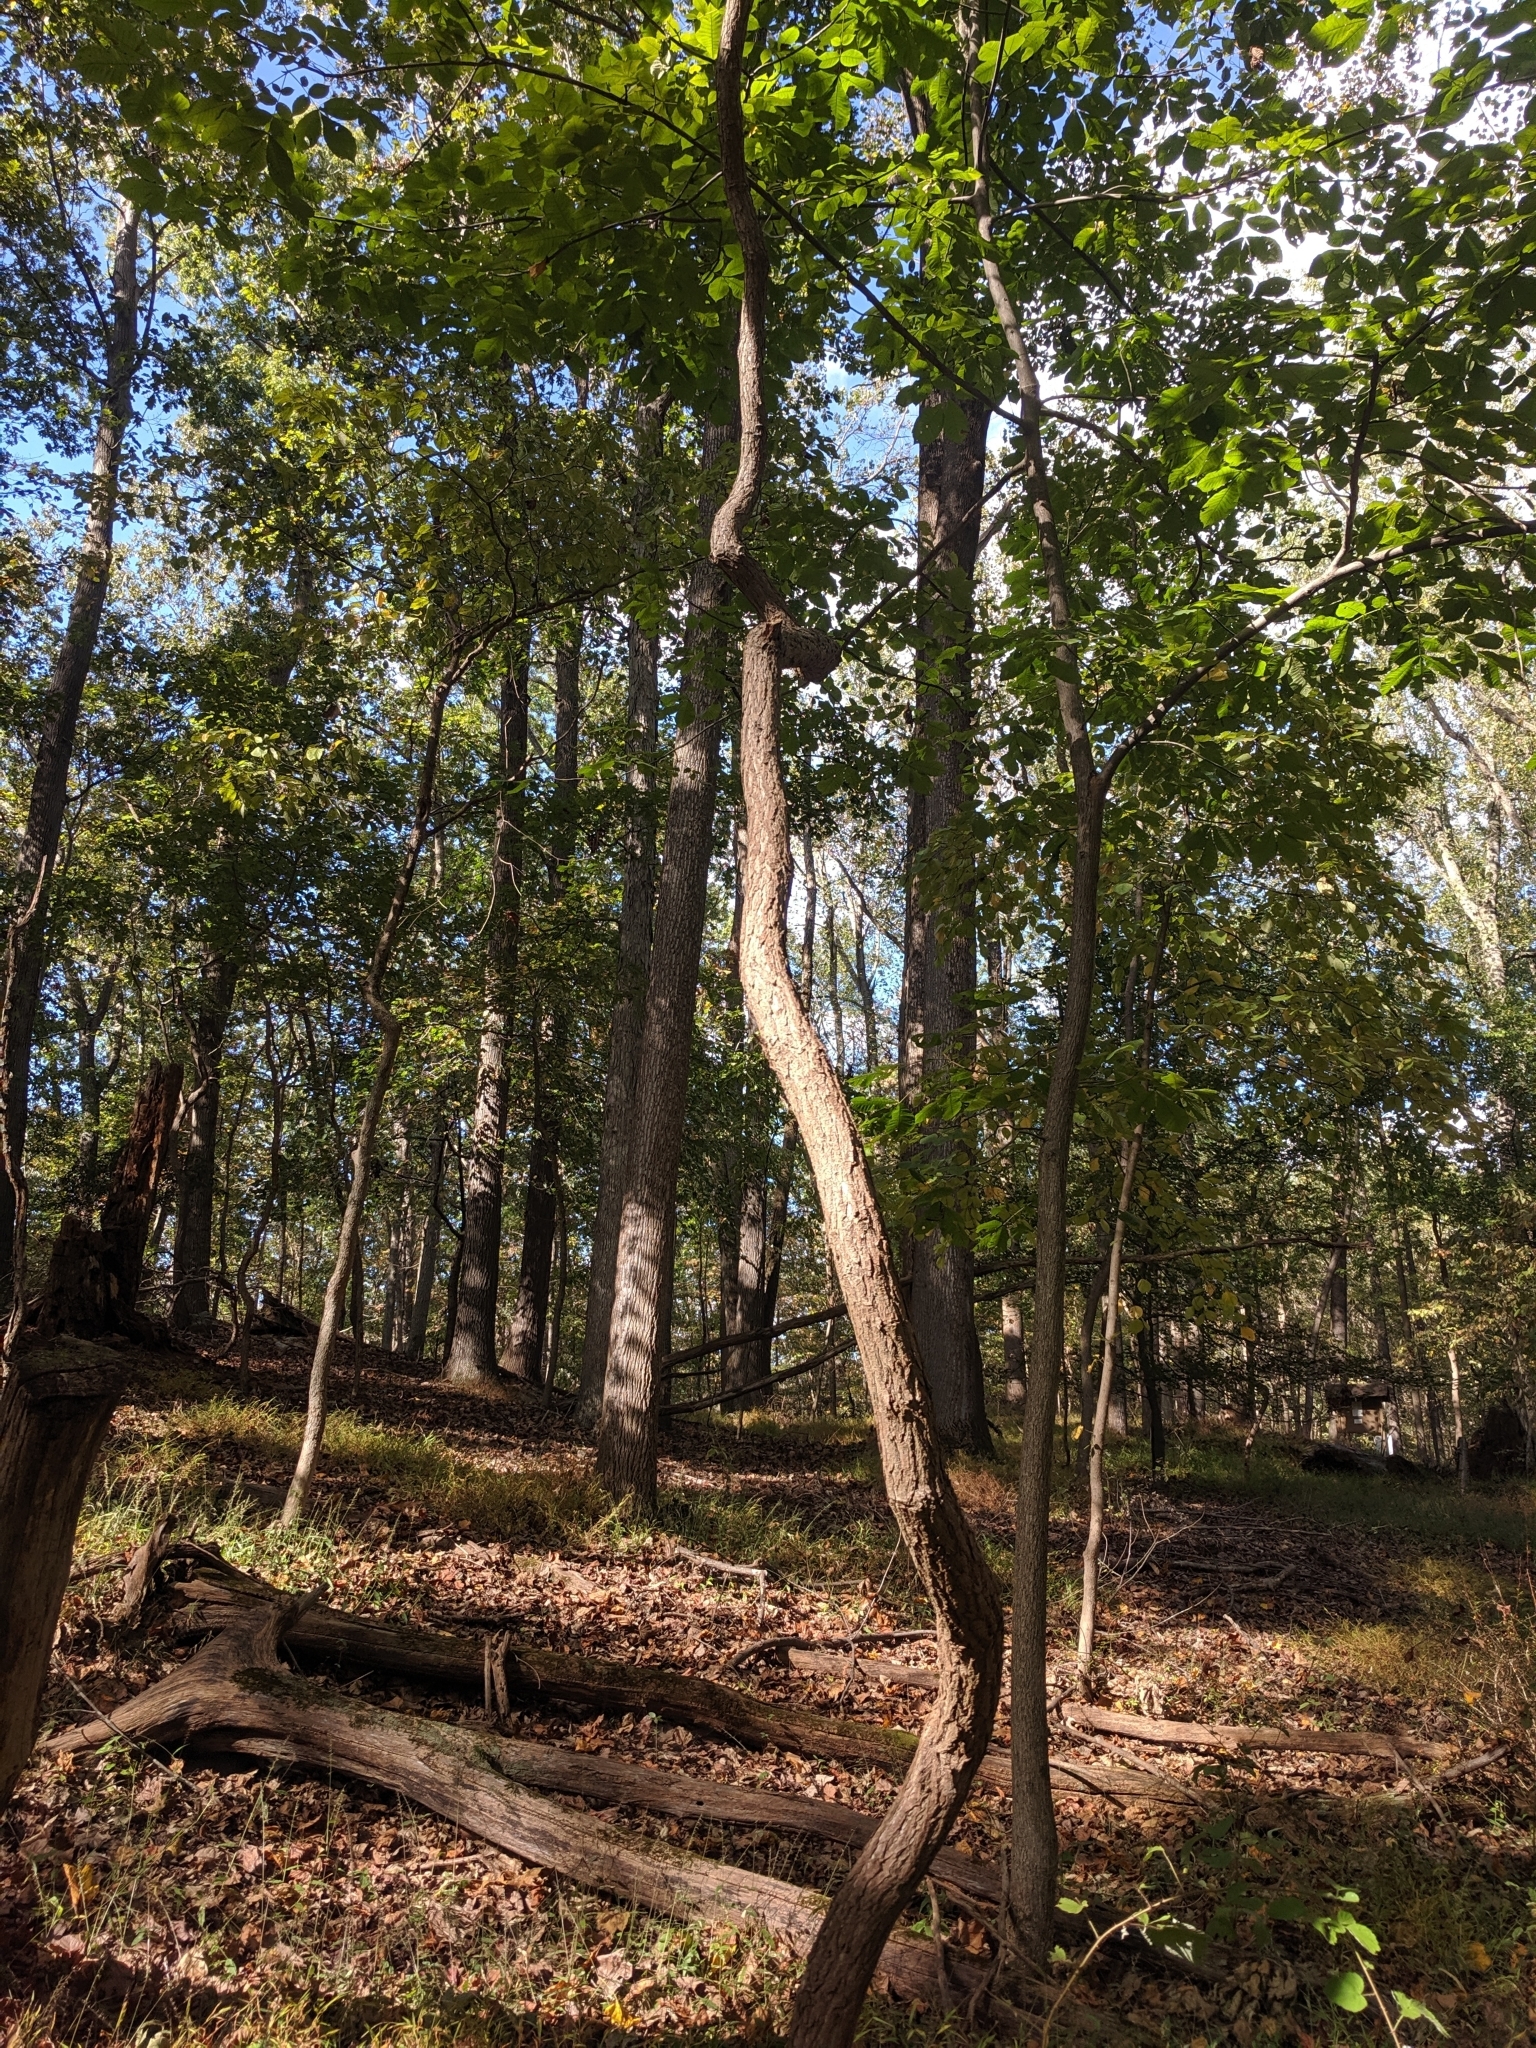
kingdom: Plantae
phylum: Tracheophyta
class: Magnoliopsida
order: Laurales
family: Lauraceae
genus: Sassafras
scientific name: Sassafras albidum
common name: Sassafras
